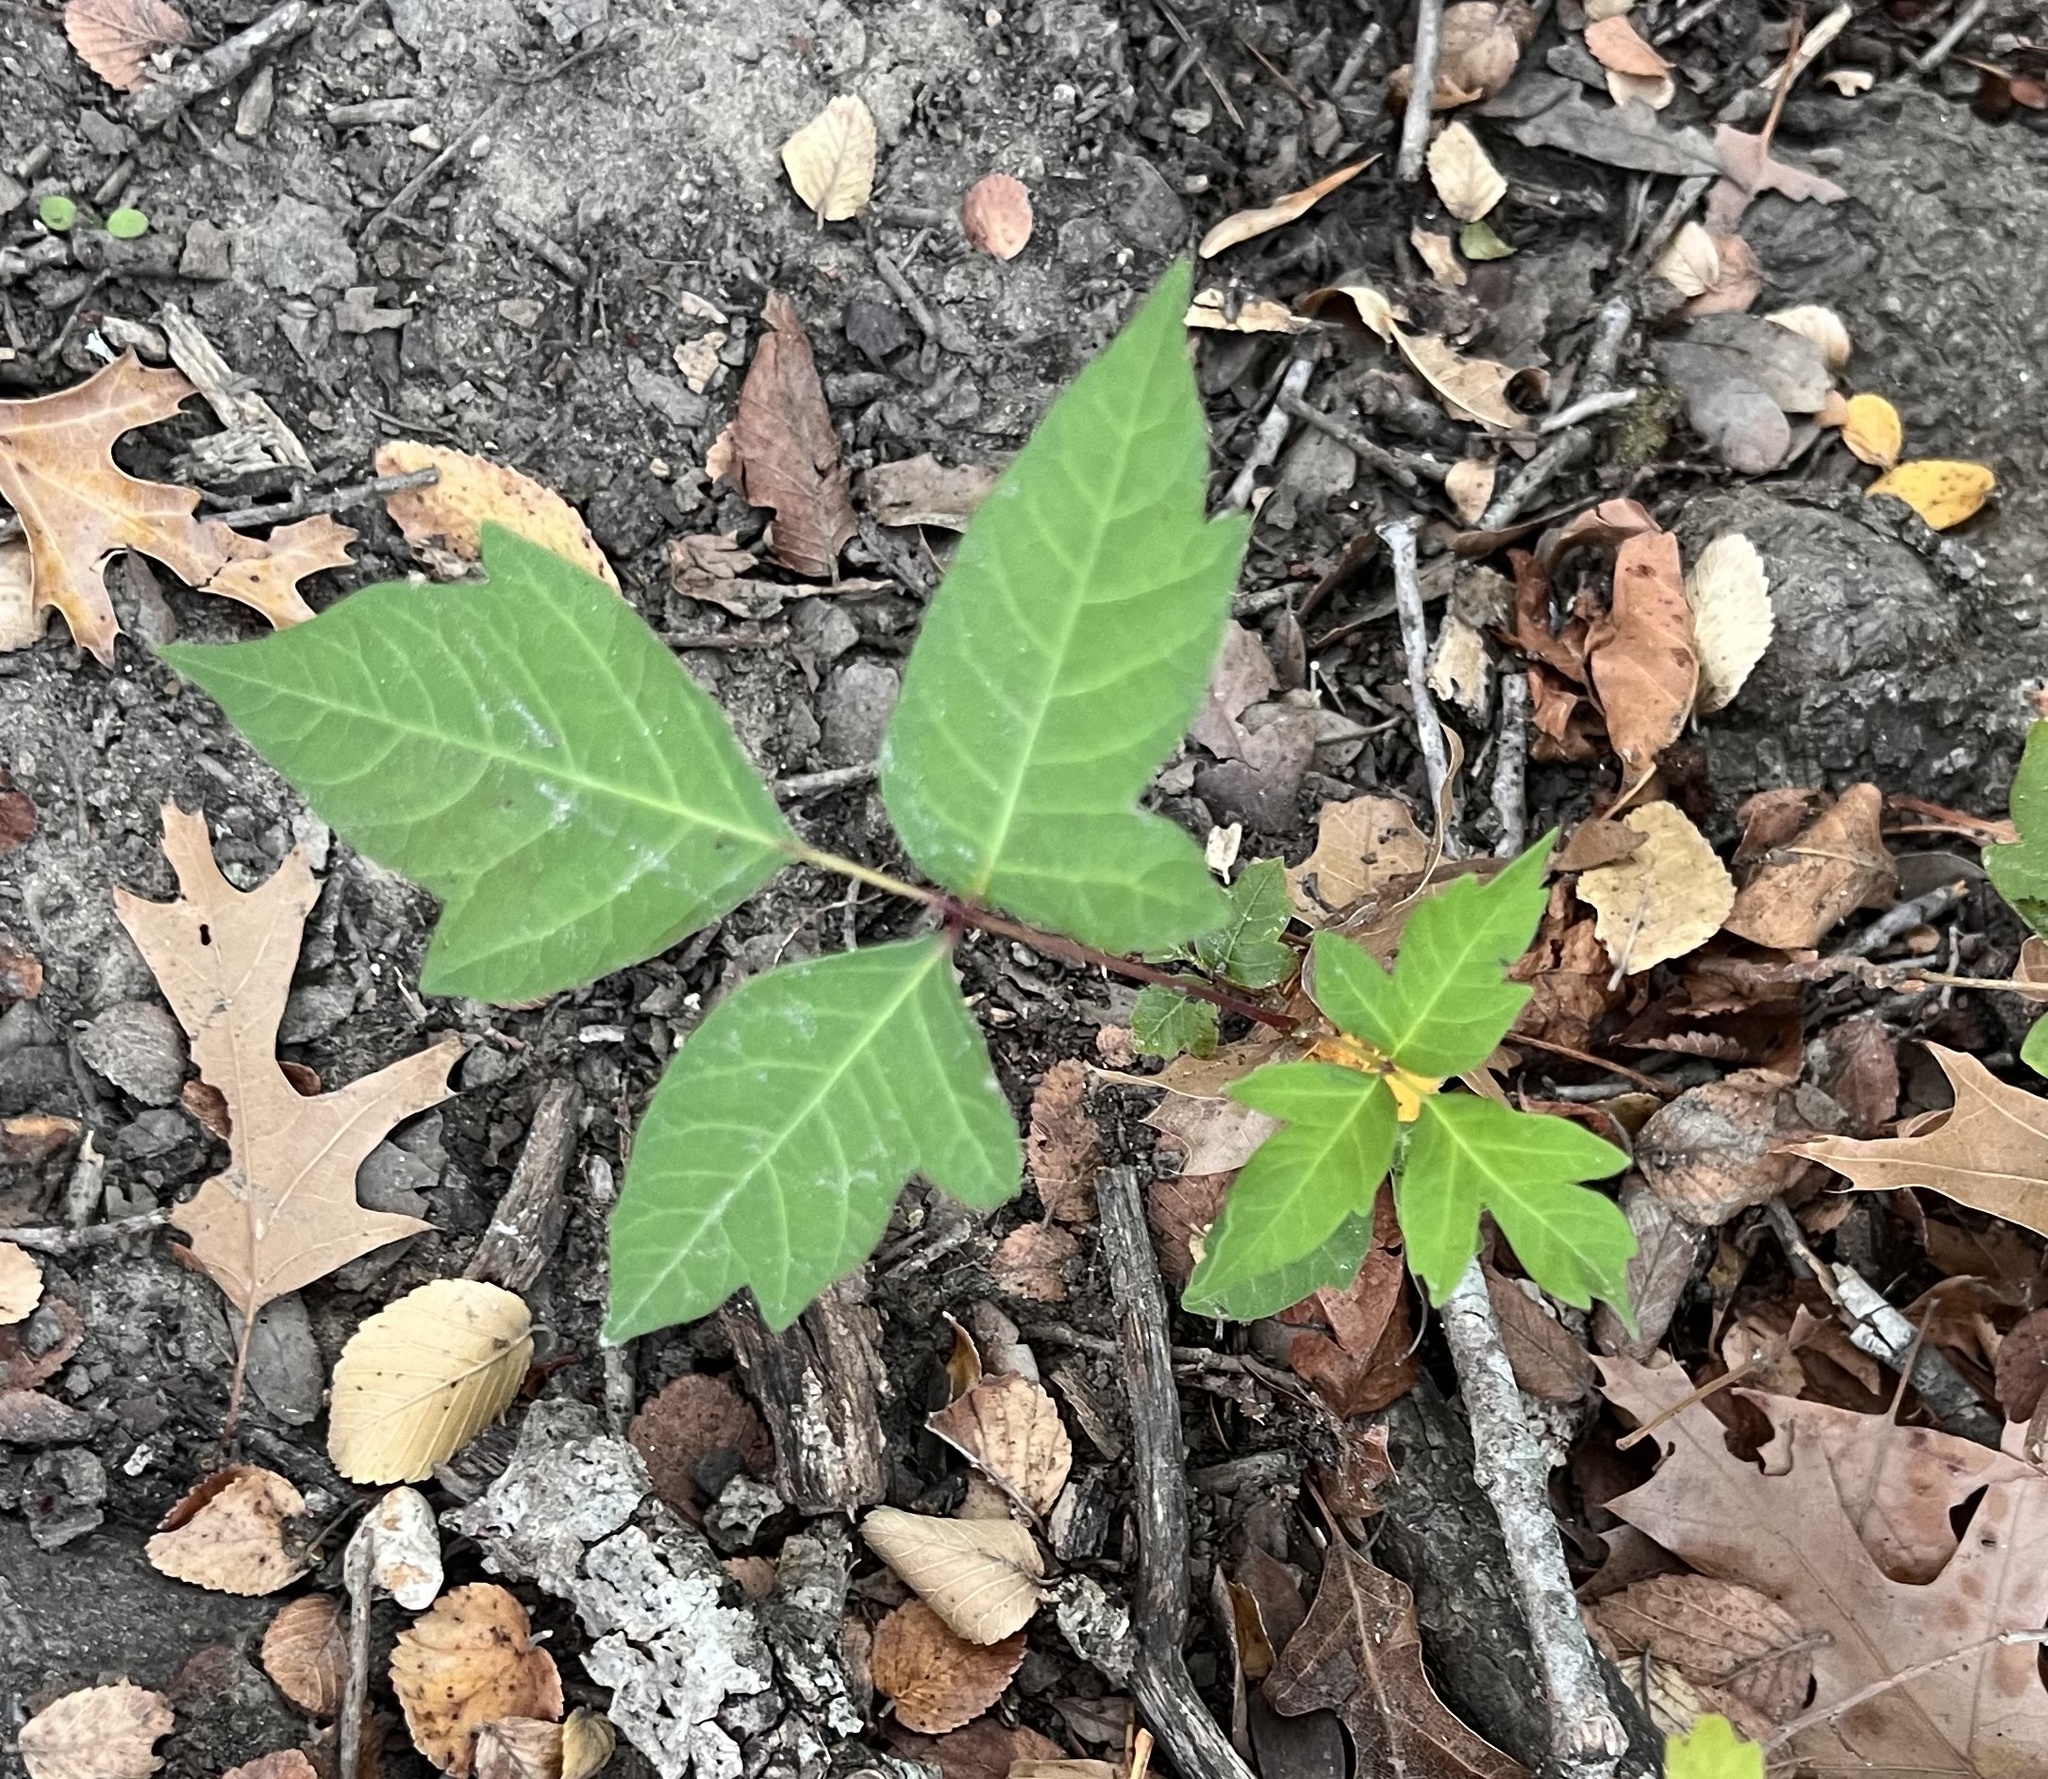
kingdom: Plantae
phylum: Tracheophyta
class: Magnoliopsida
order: Sapindales
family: Anacardiaceae
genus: Toxicodendron
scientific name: Toxicodendron radicans
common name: Poison ivy
